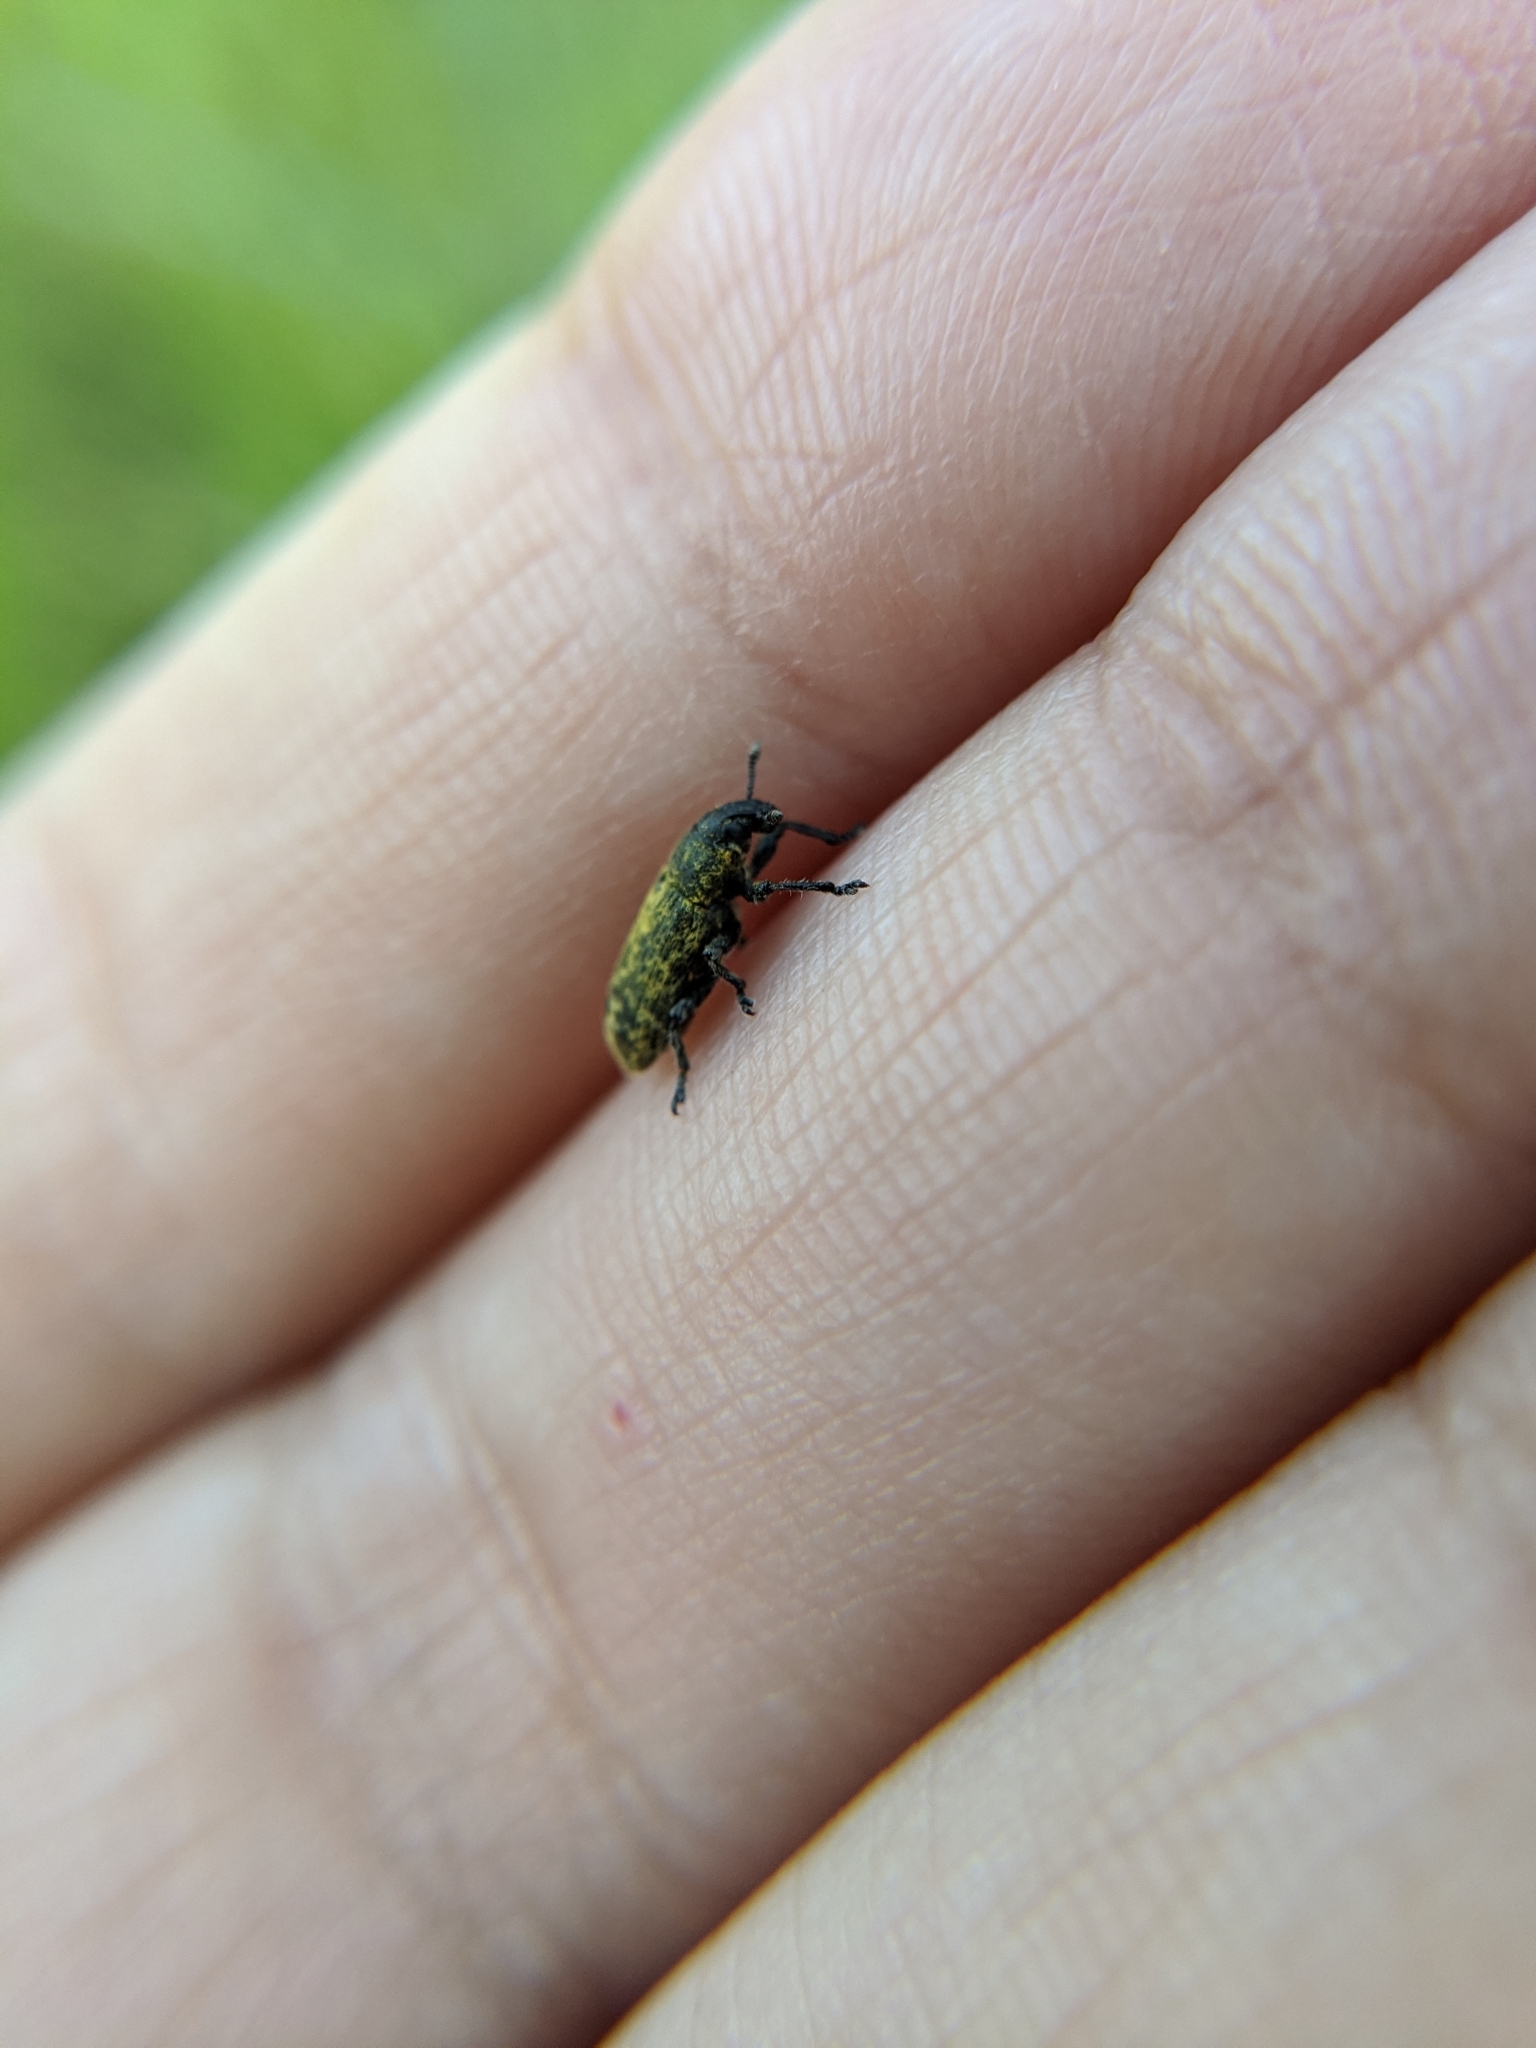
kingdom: Animalia
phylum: Arthropoda
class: Insecta
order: Coleoptera
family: Curculionidae
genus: Rhinocyllus
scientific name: Rhinocyllus conicus
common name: Weevil
